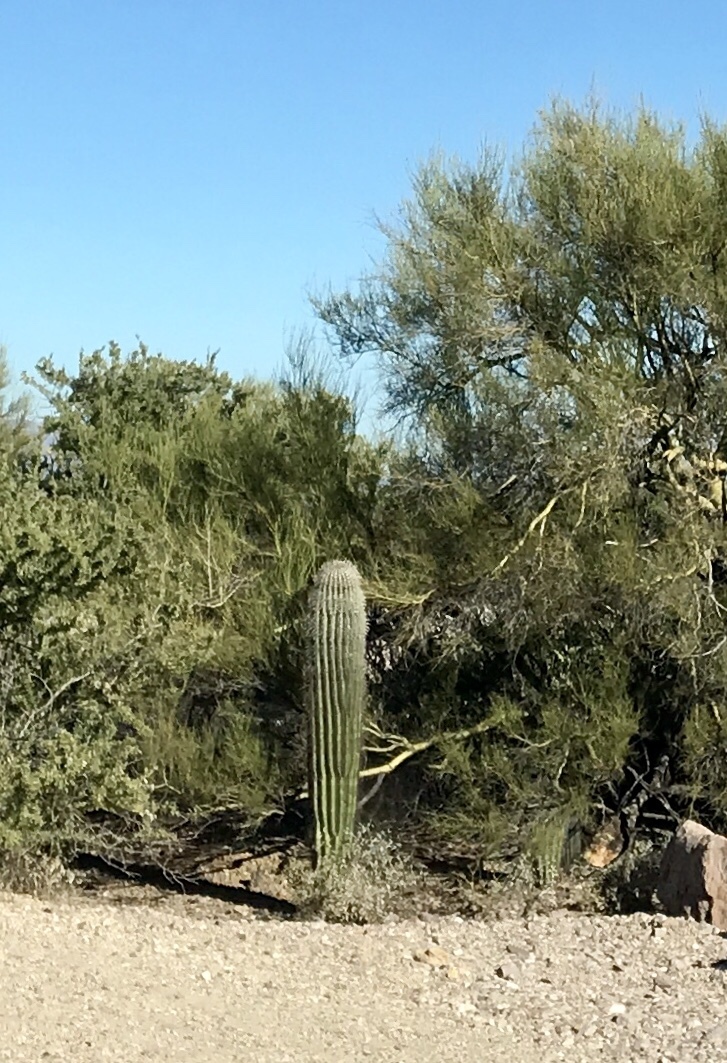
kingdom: Plantae
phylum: Tracheophyta
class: Magnoliopsida
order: Caryophyllales
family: Cactaceae
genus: Carnegiea
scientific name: Carnegiea gigantea
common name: Saguaro
